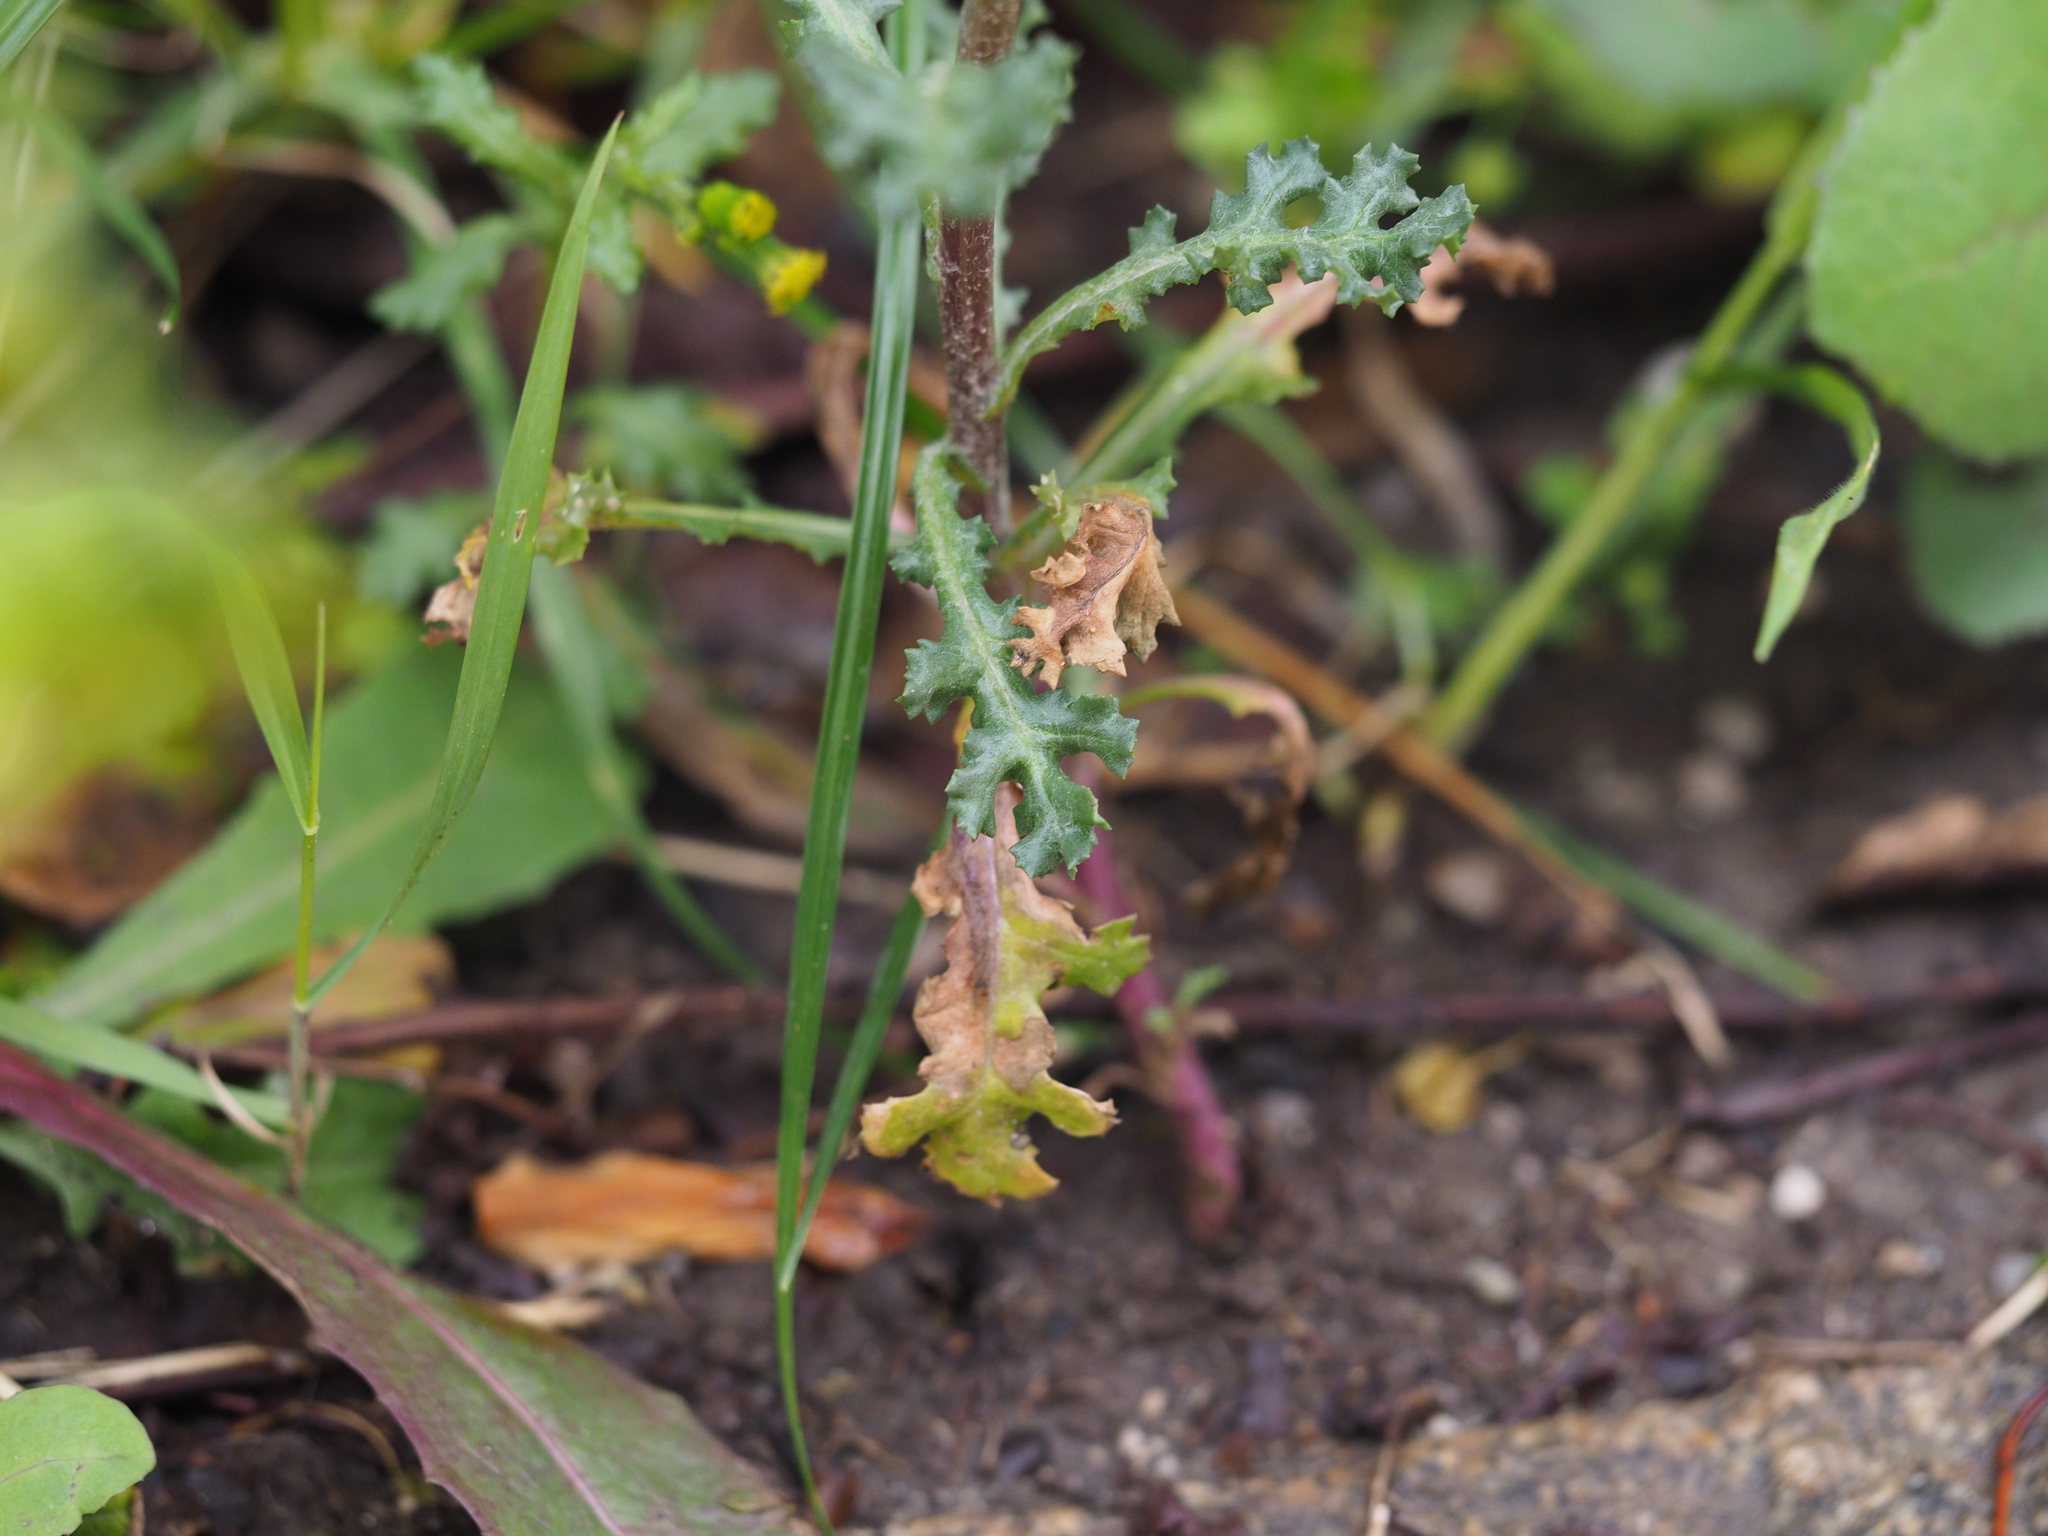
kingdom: Chromista
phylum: Oomycota
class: Peronosporea
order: Albuginales
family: Albuginaceae
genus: Pustula
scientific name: Pustula
